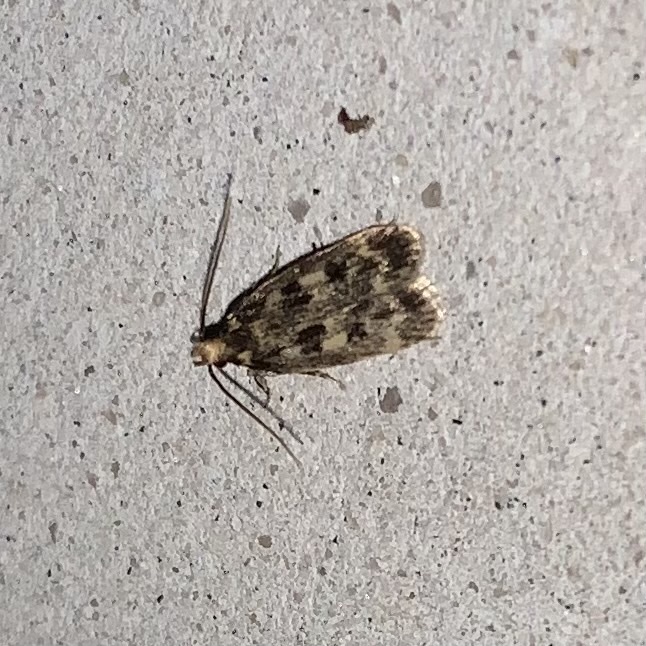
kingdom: Animalia
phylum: Arthropoda
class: Insecta
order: Lepidoptera
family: Lecithoceridae
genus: Martyringa
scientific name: Martyringa latipennis
